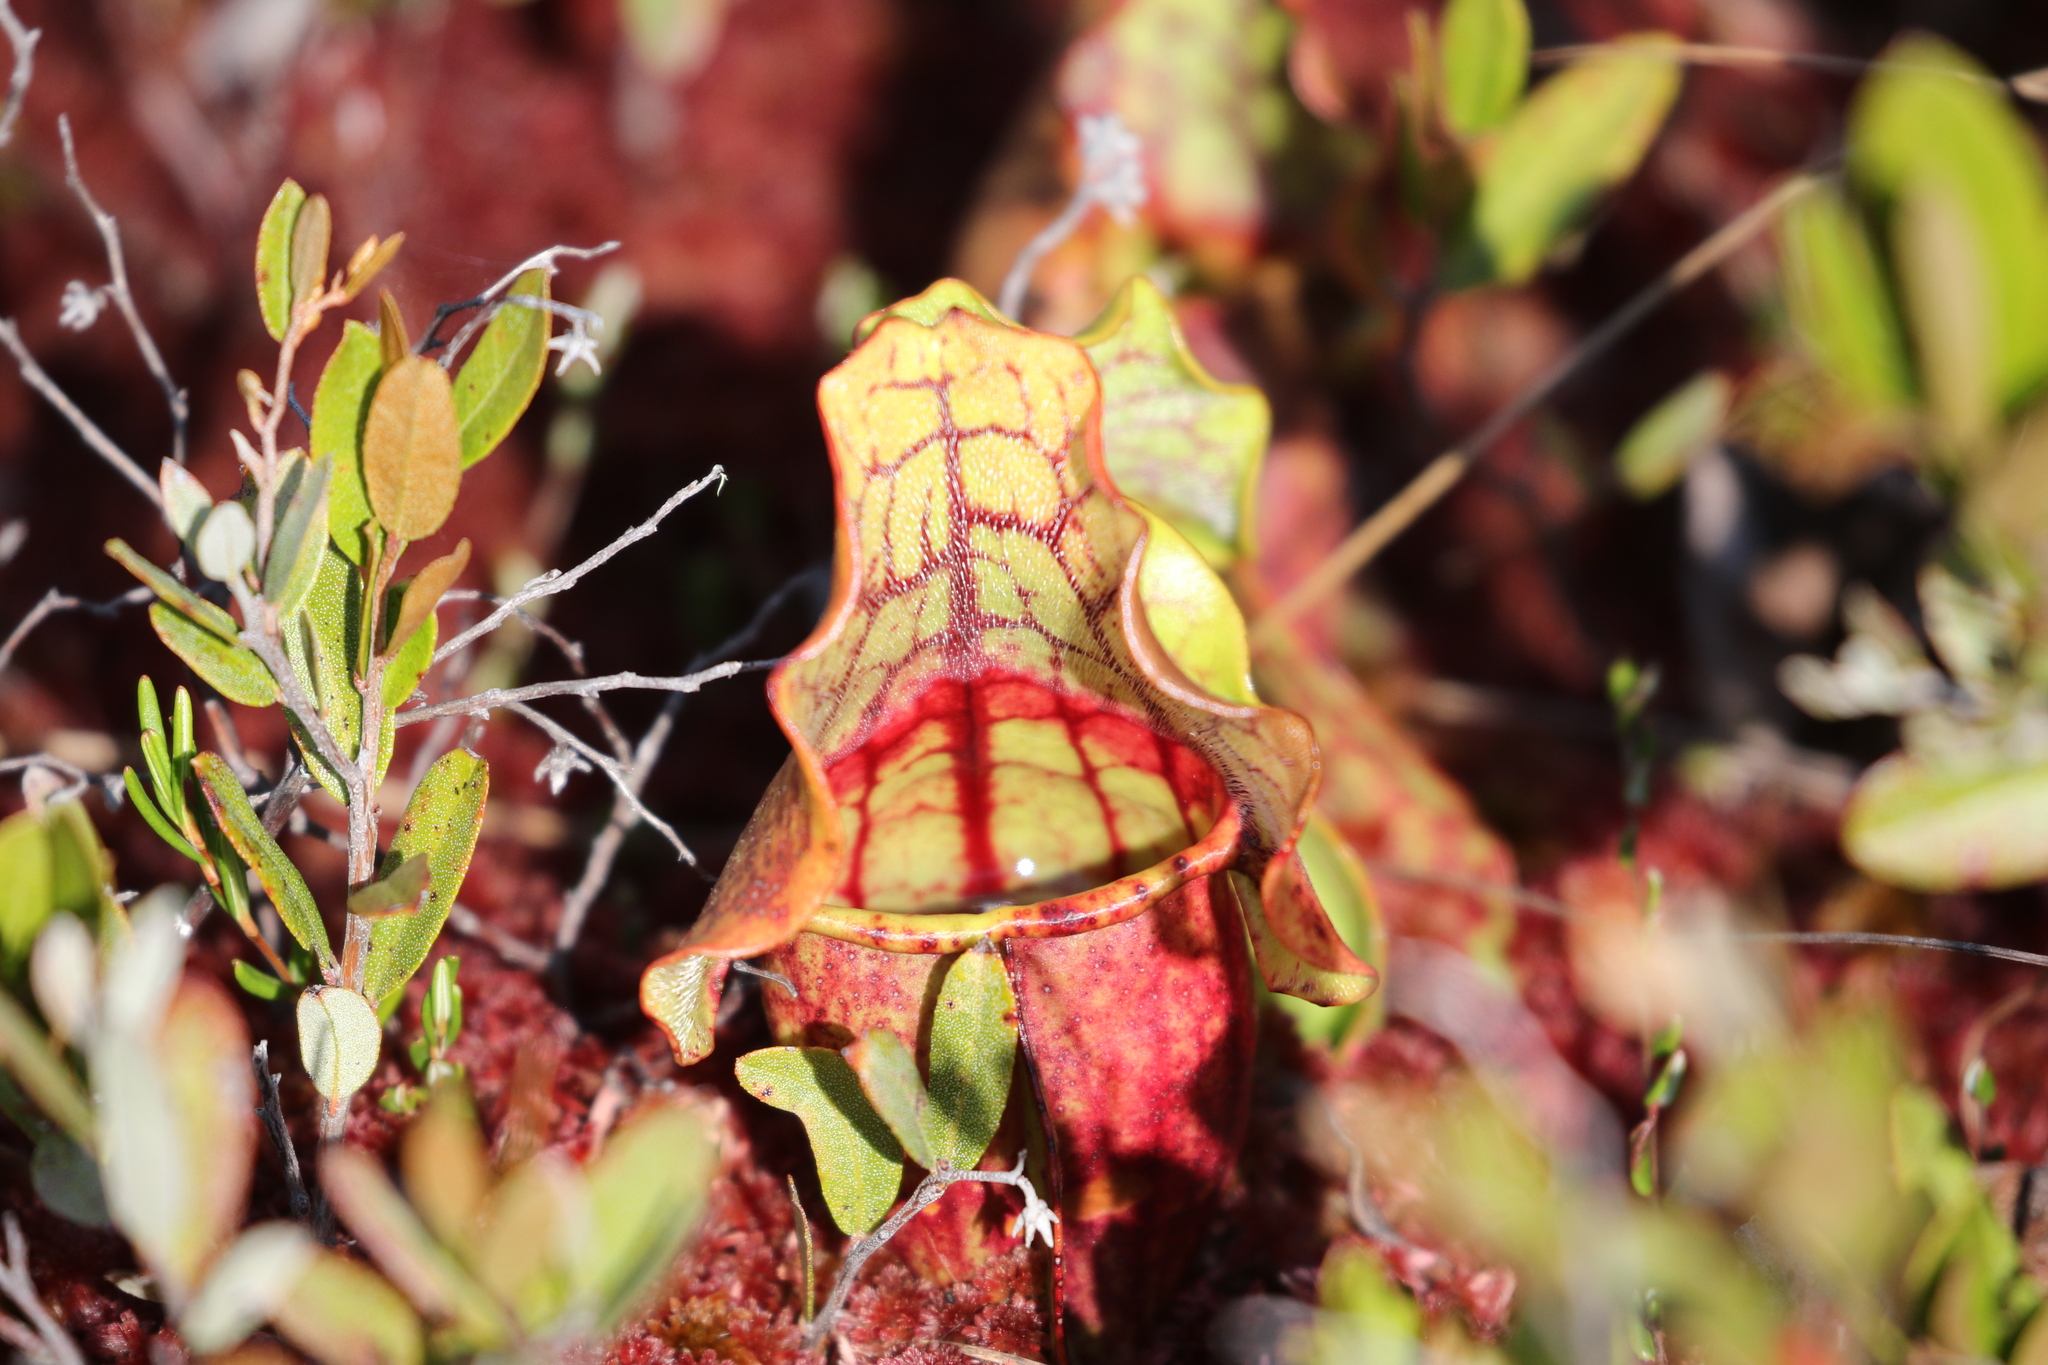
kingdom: Plantae
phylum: Tracheophyta
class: Magnoliopsida
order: Ericales
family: Sarraceniaceae
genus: Sarracenia
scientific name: Sarracenia purpurea
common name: Pitcherplant
